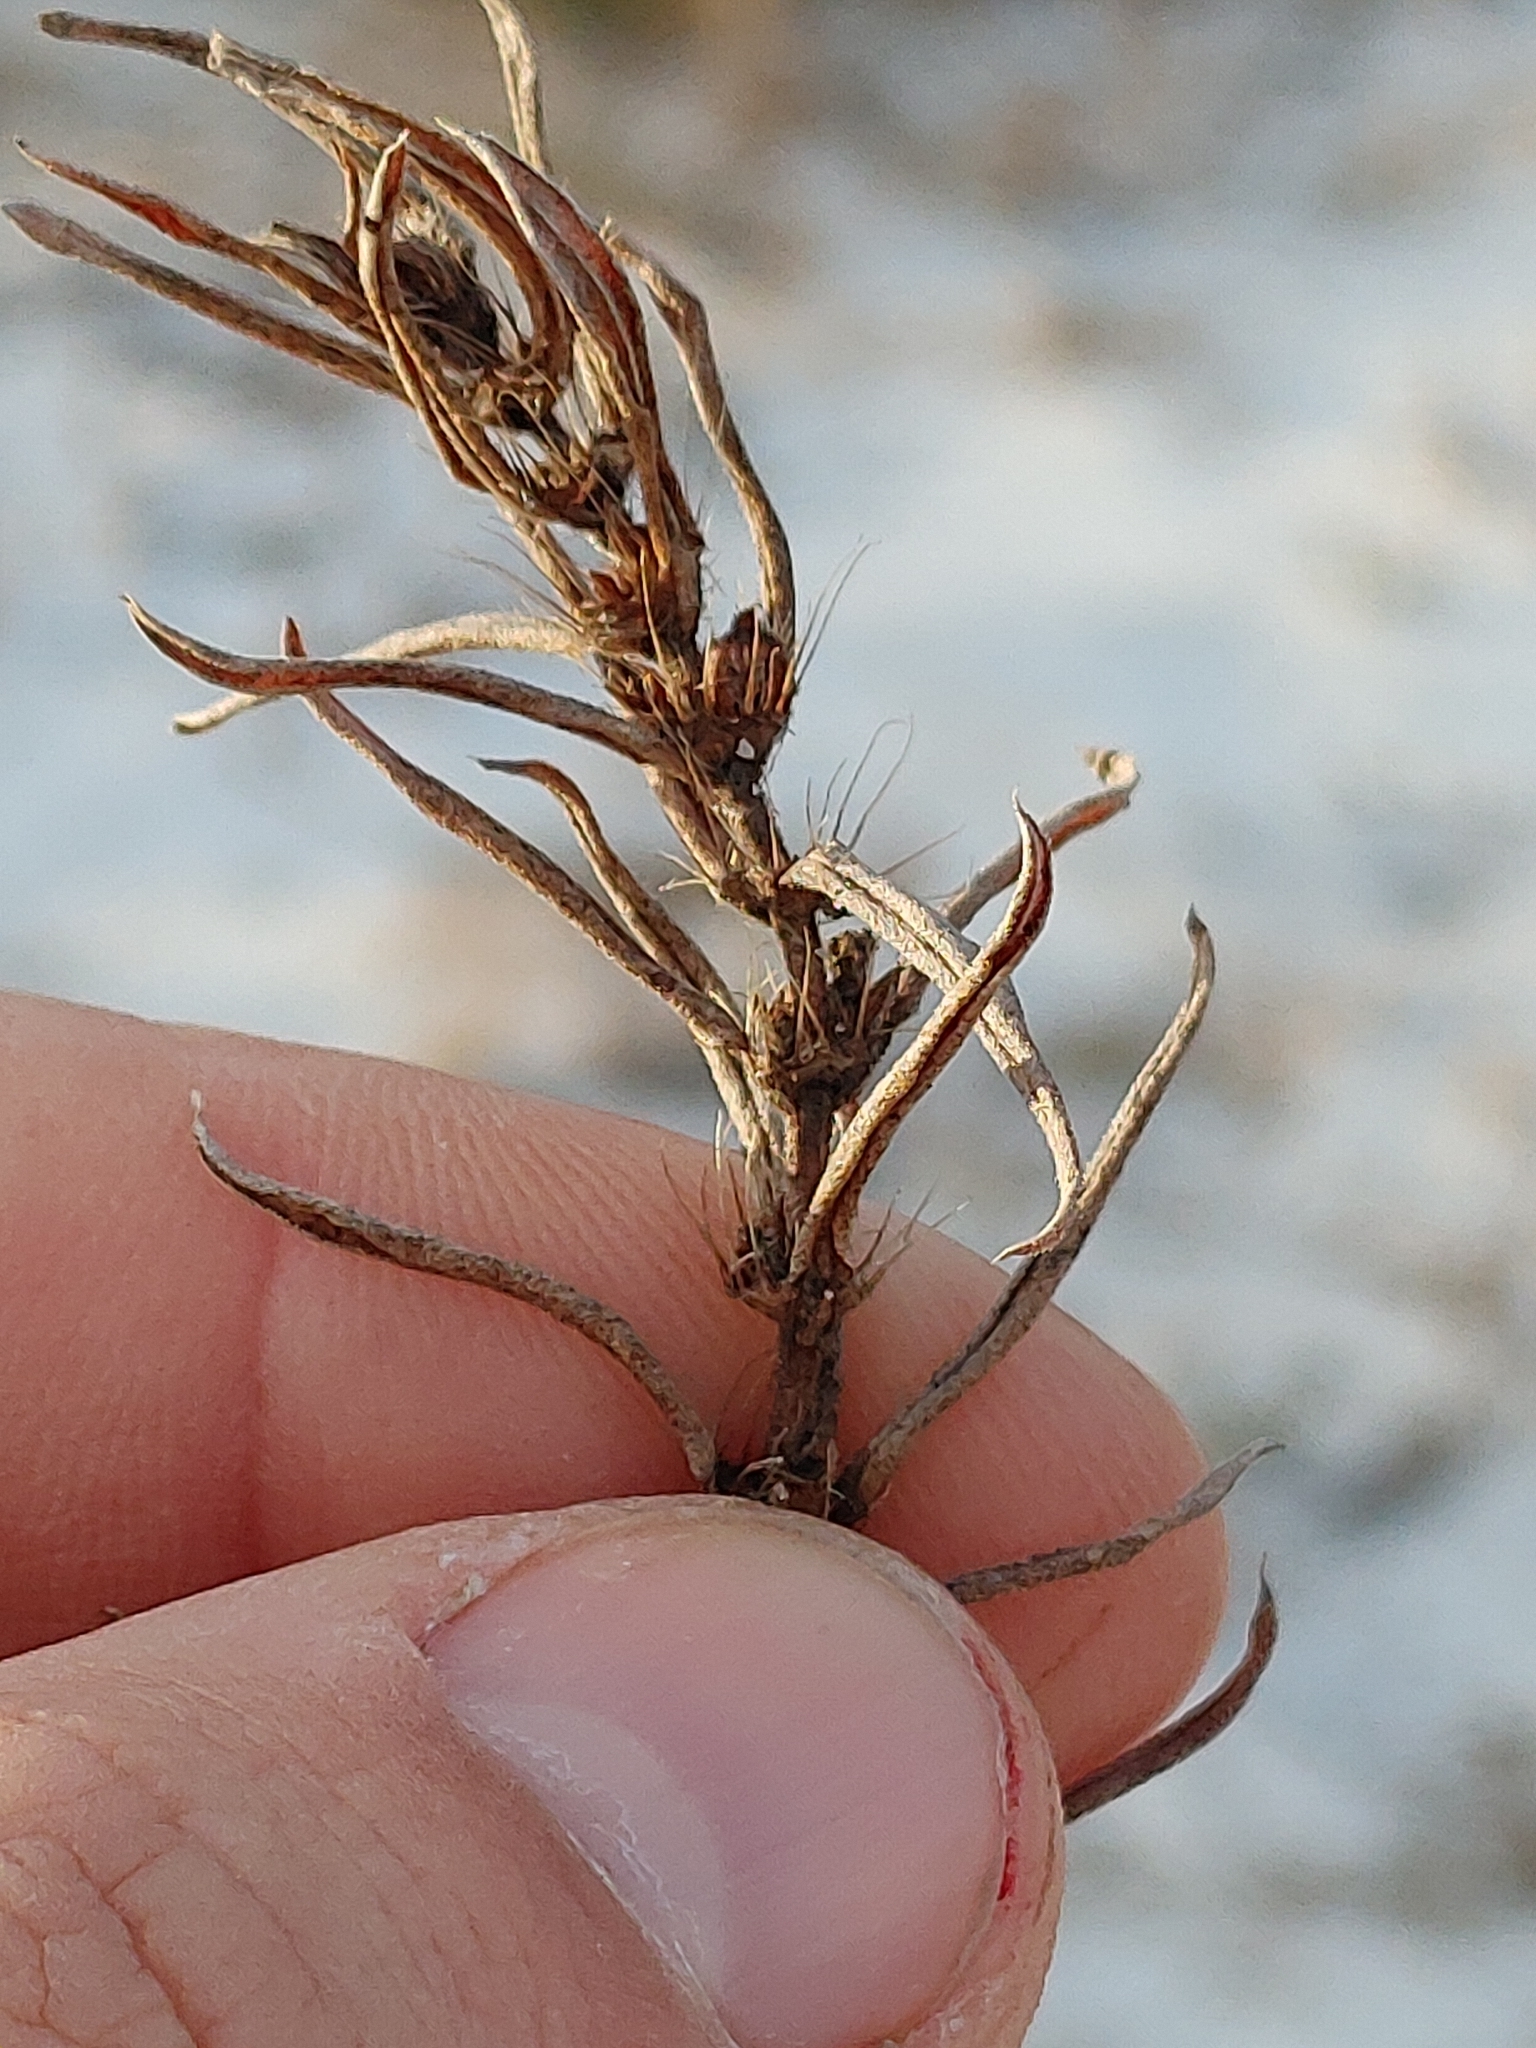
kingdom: Plantae
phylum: Tracheophyta
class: Magnoliopsida
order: Gentianales
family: Rubiaceae
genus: Hexasepalum
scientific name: Hexasepalum teres
